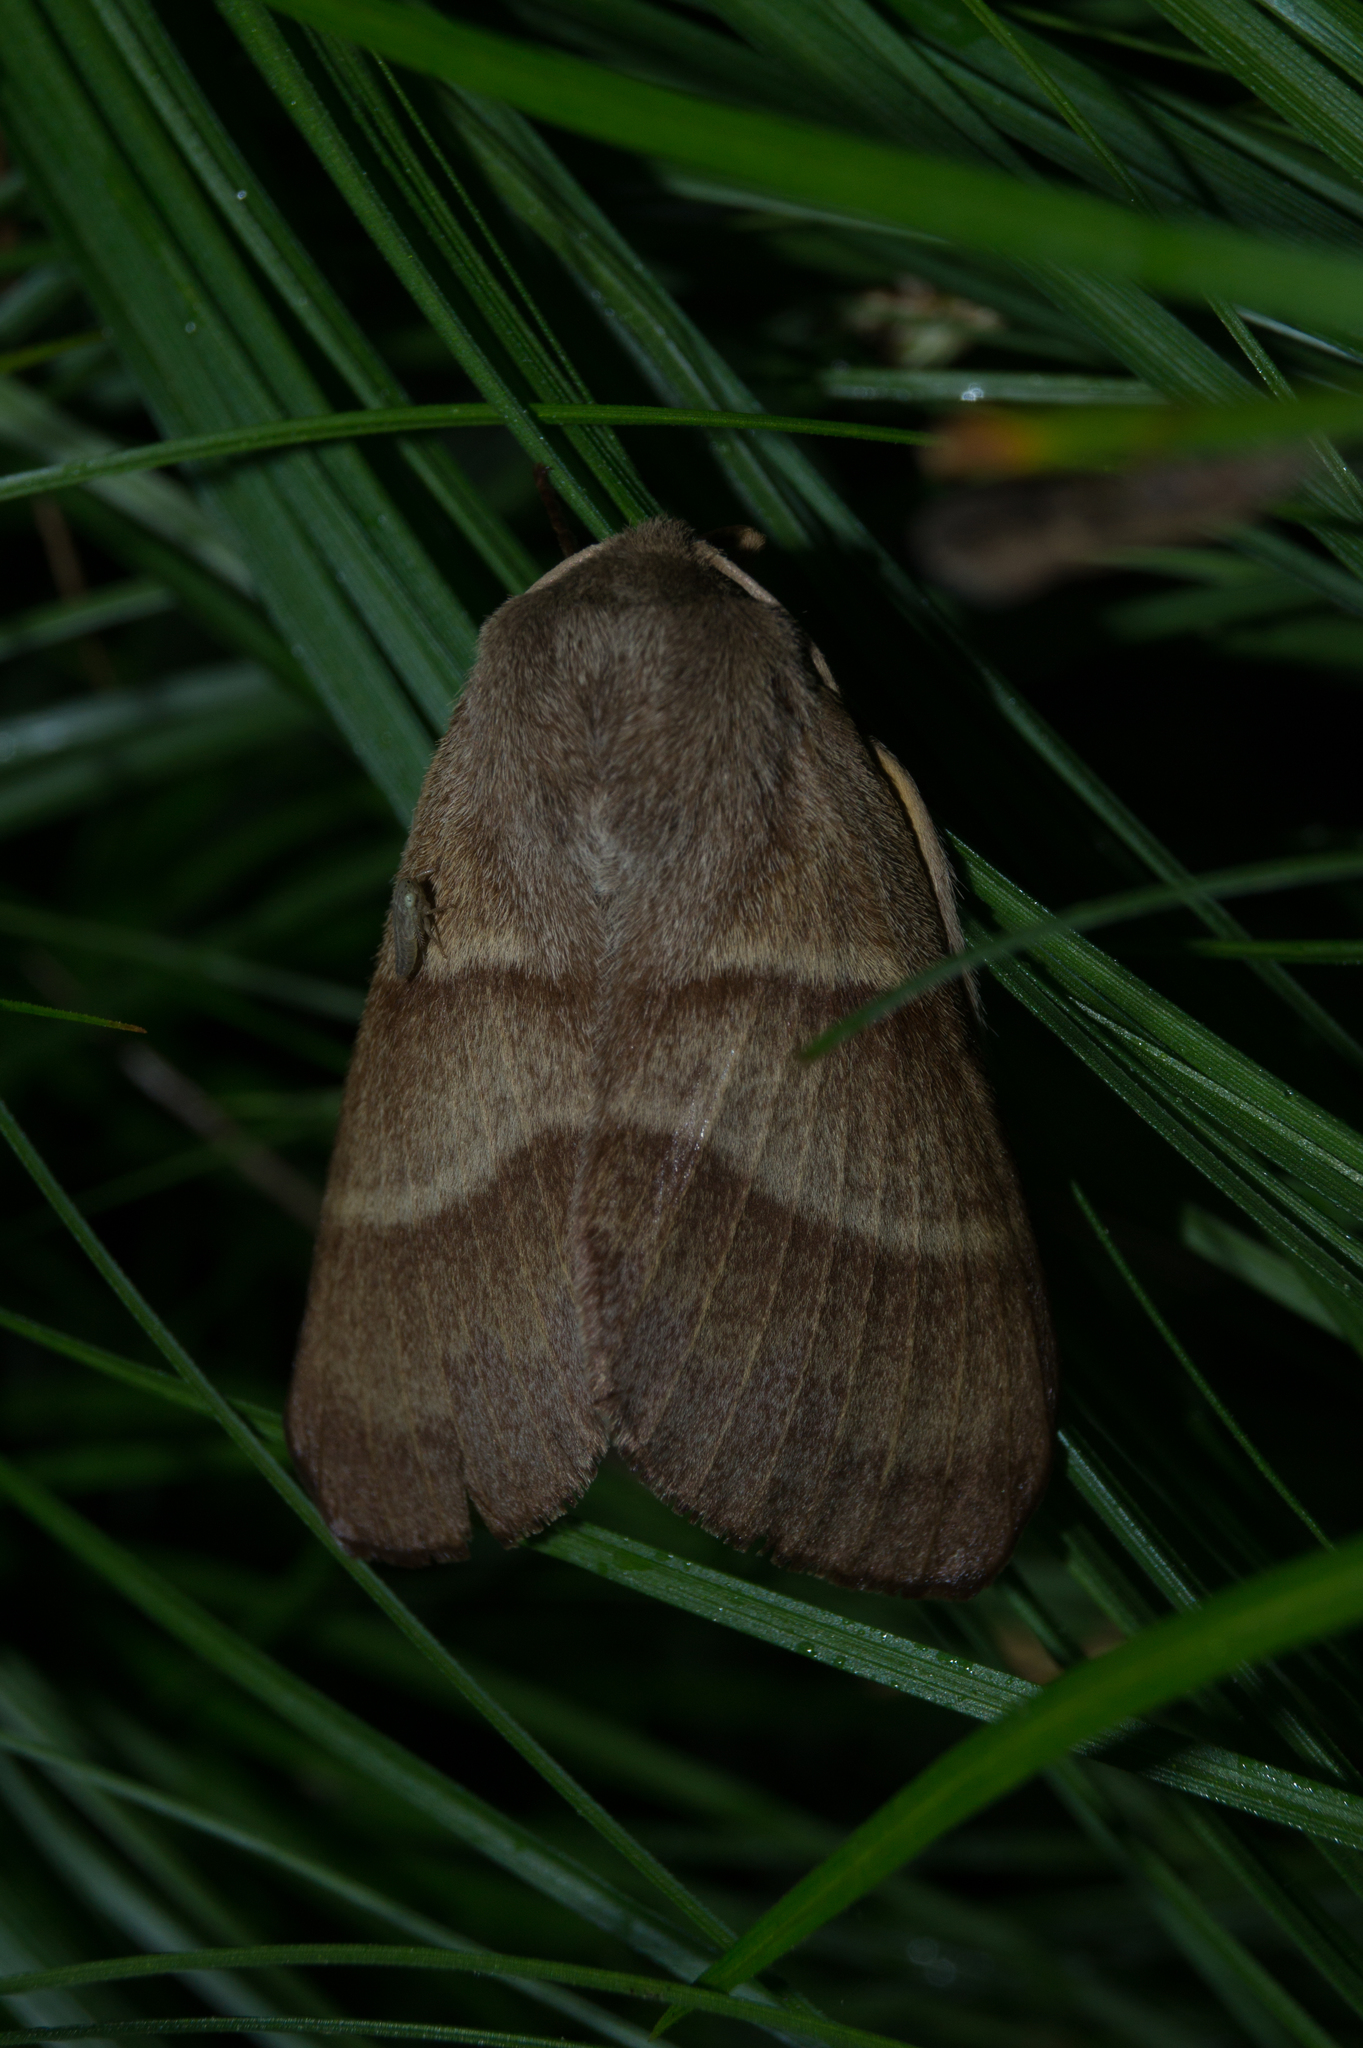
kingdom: Animalia
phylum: Arthropoda
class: Insecta
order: Lepidoptera
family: Lasiocampidae
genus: Macrothylacia
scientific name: Macrothylacia rubi
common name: Fox moth
